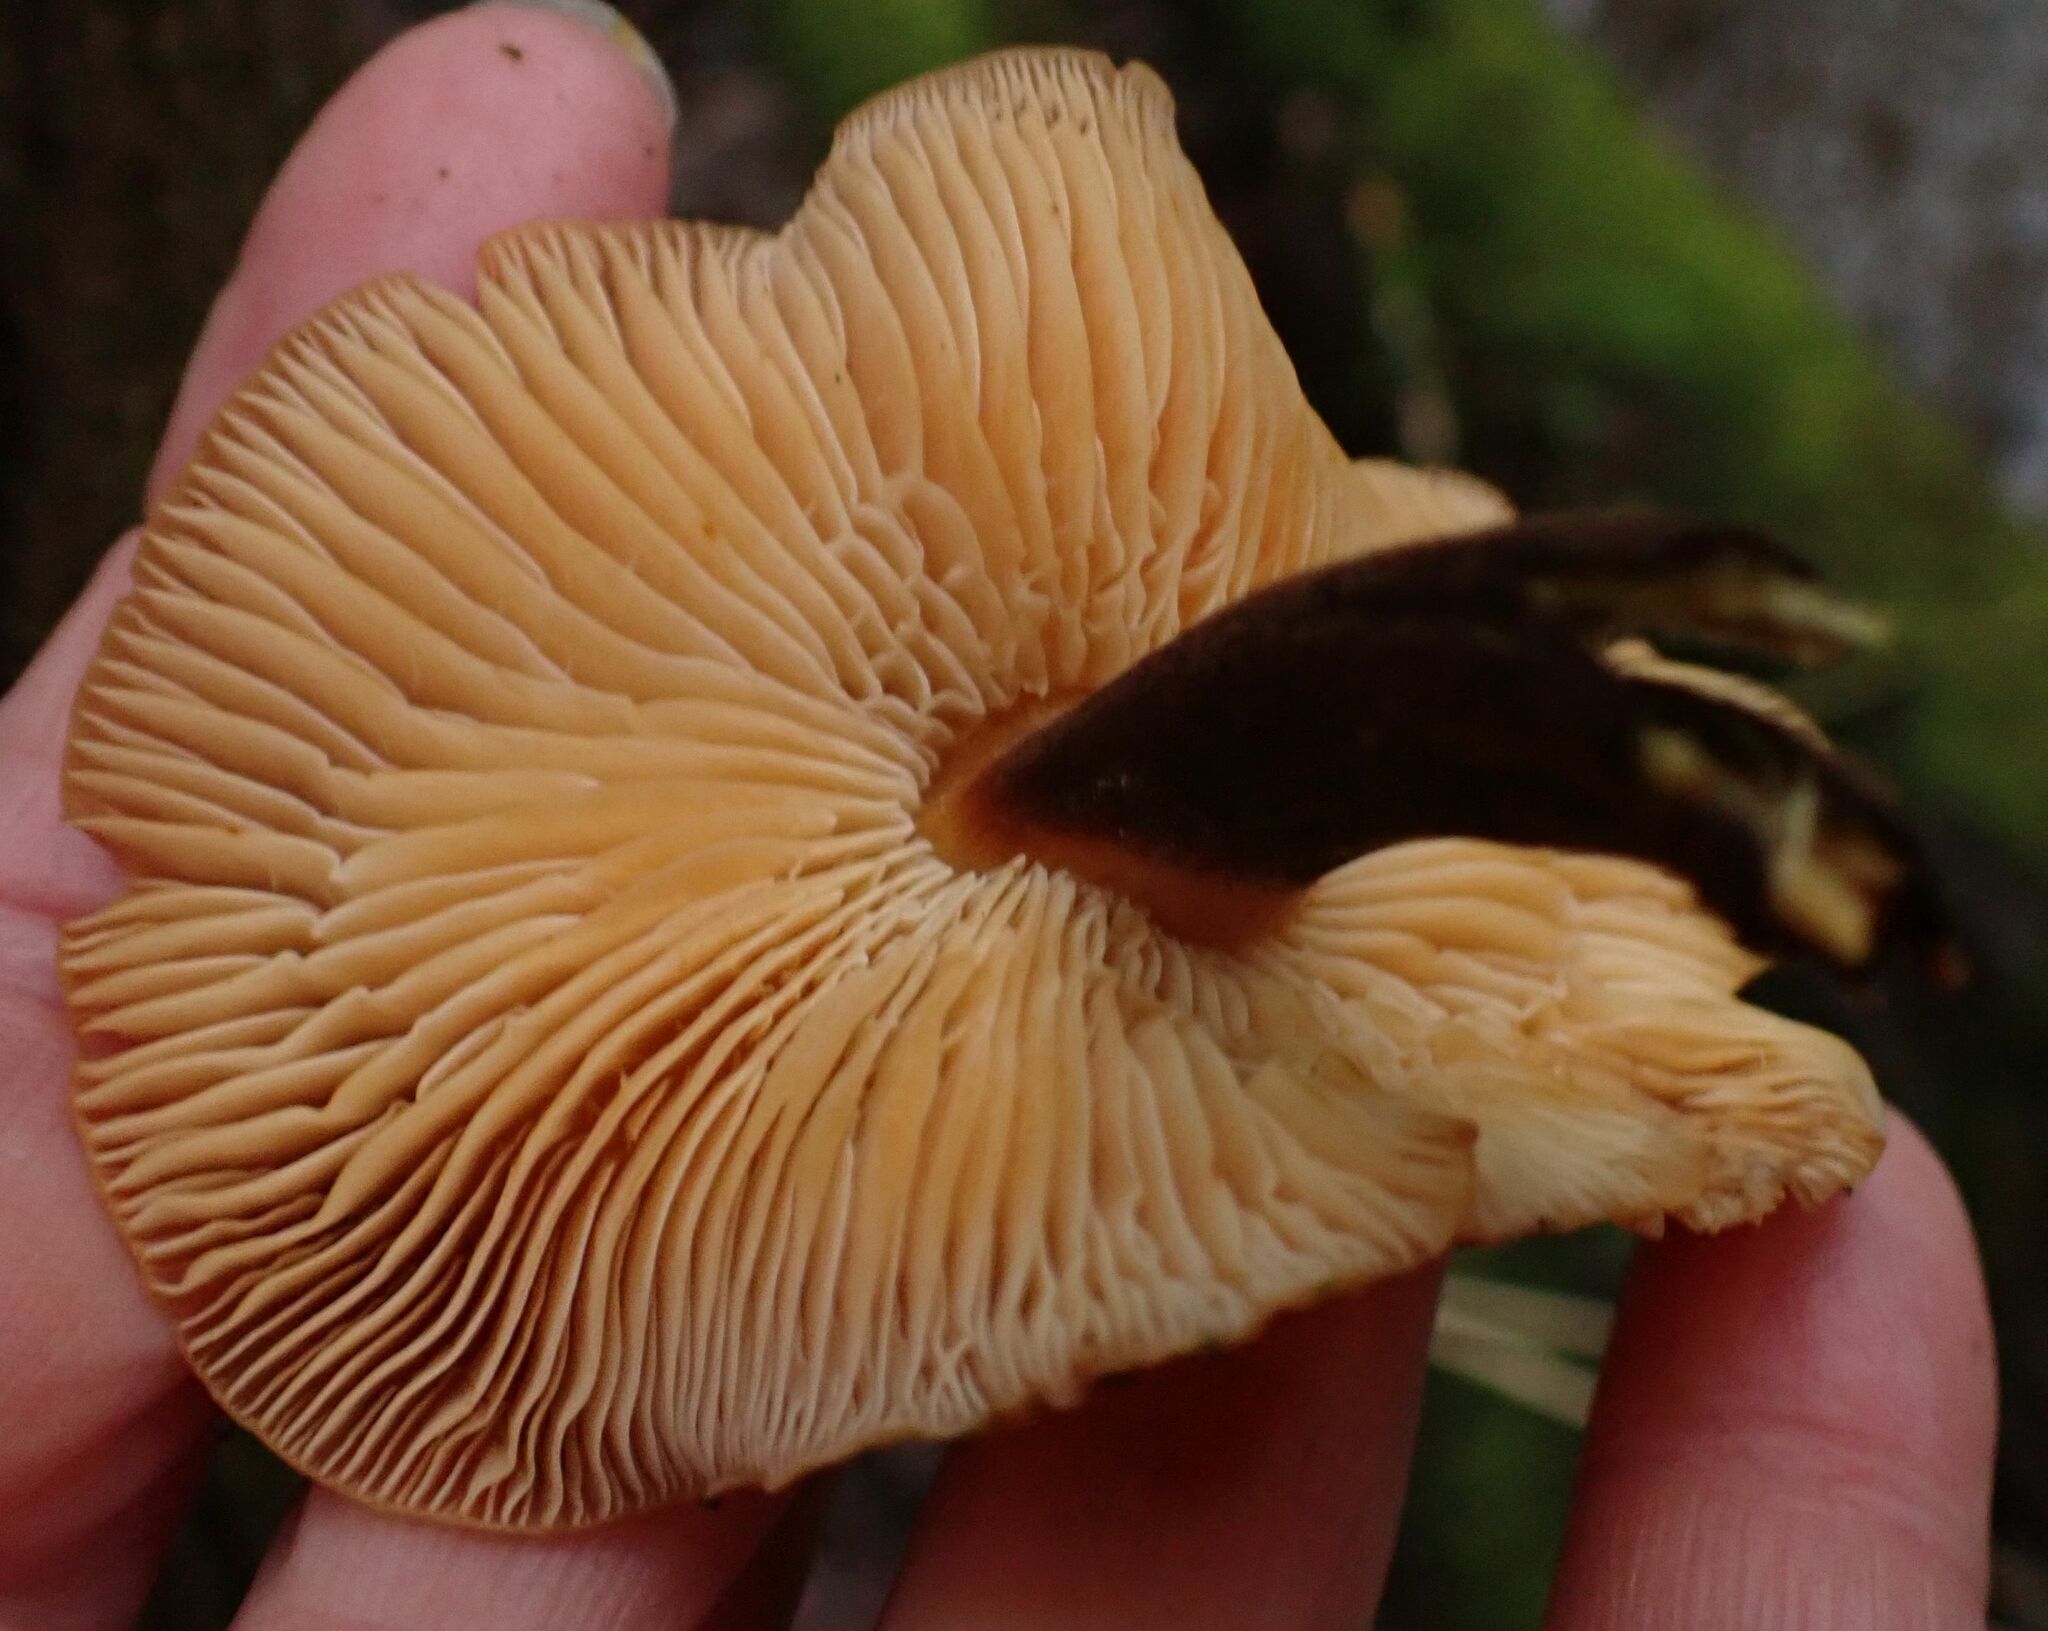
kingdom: Fungi
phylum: Basidiomycota
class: Agaricomycetes
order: Agaricales
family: Physalacriaceae
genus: Flammulina
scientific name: Flammulina
